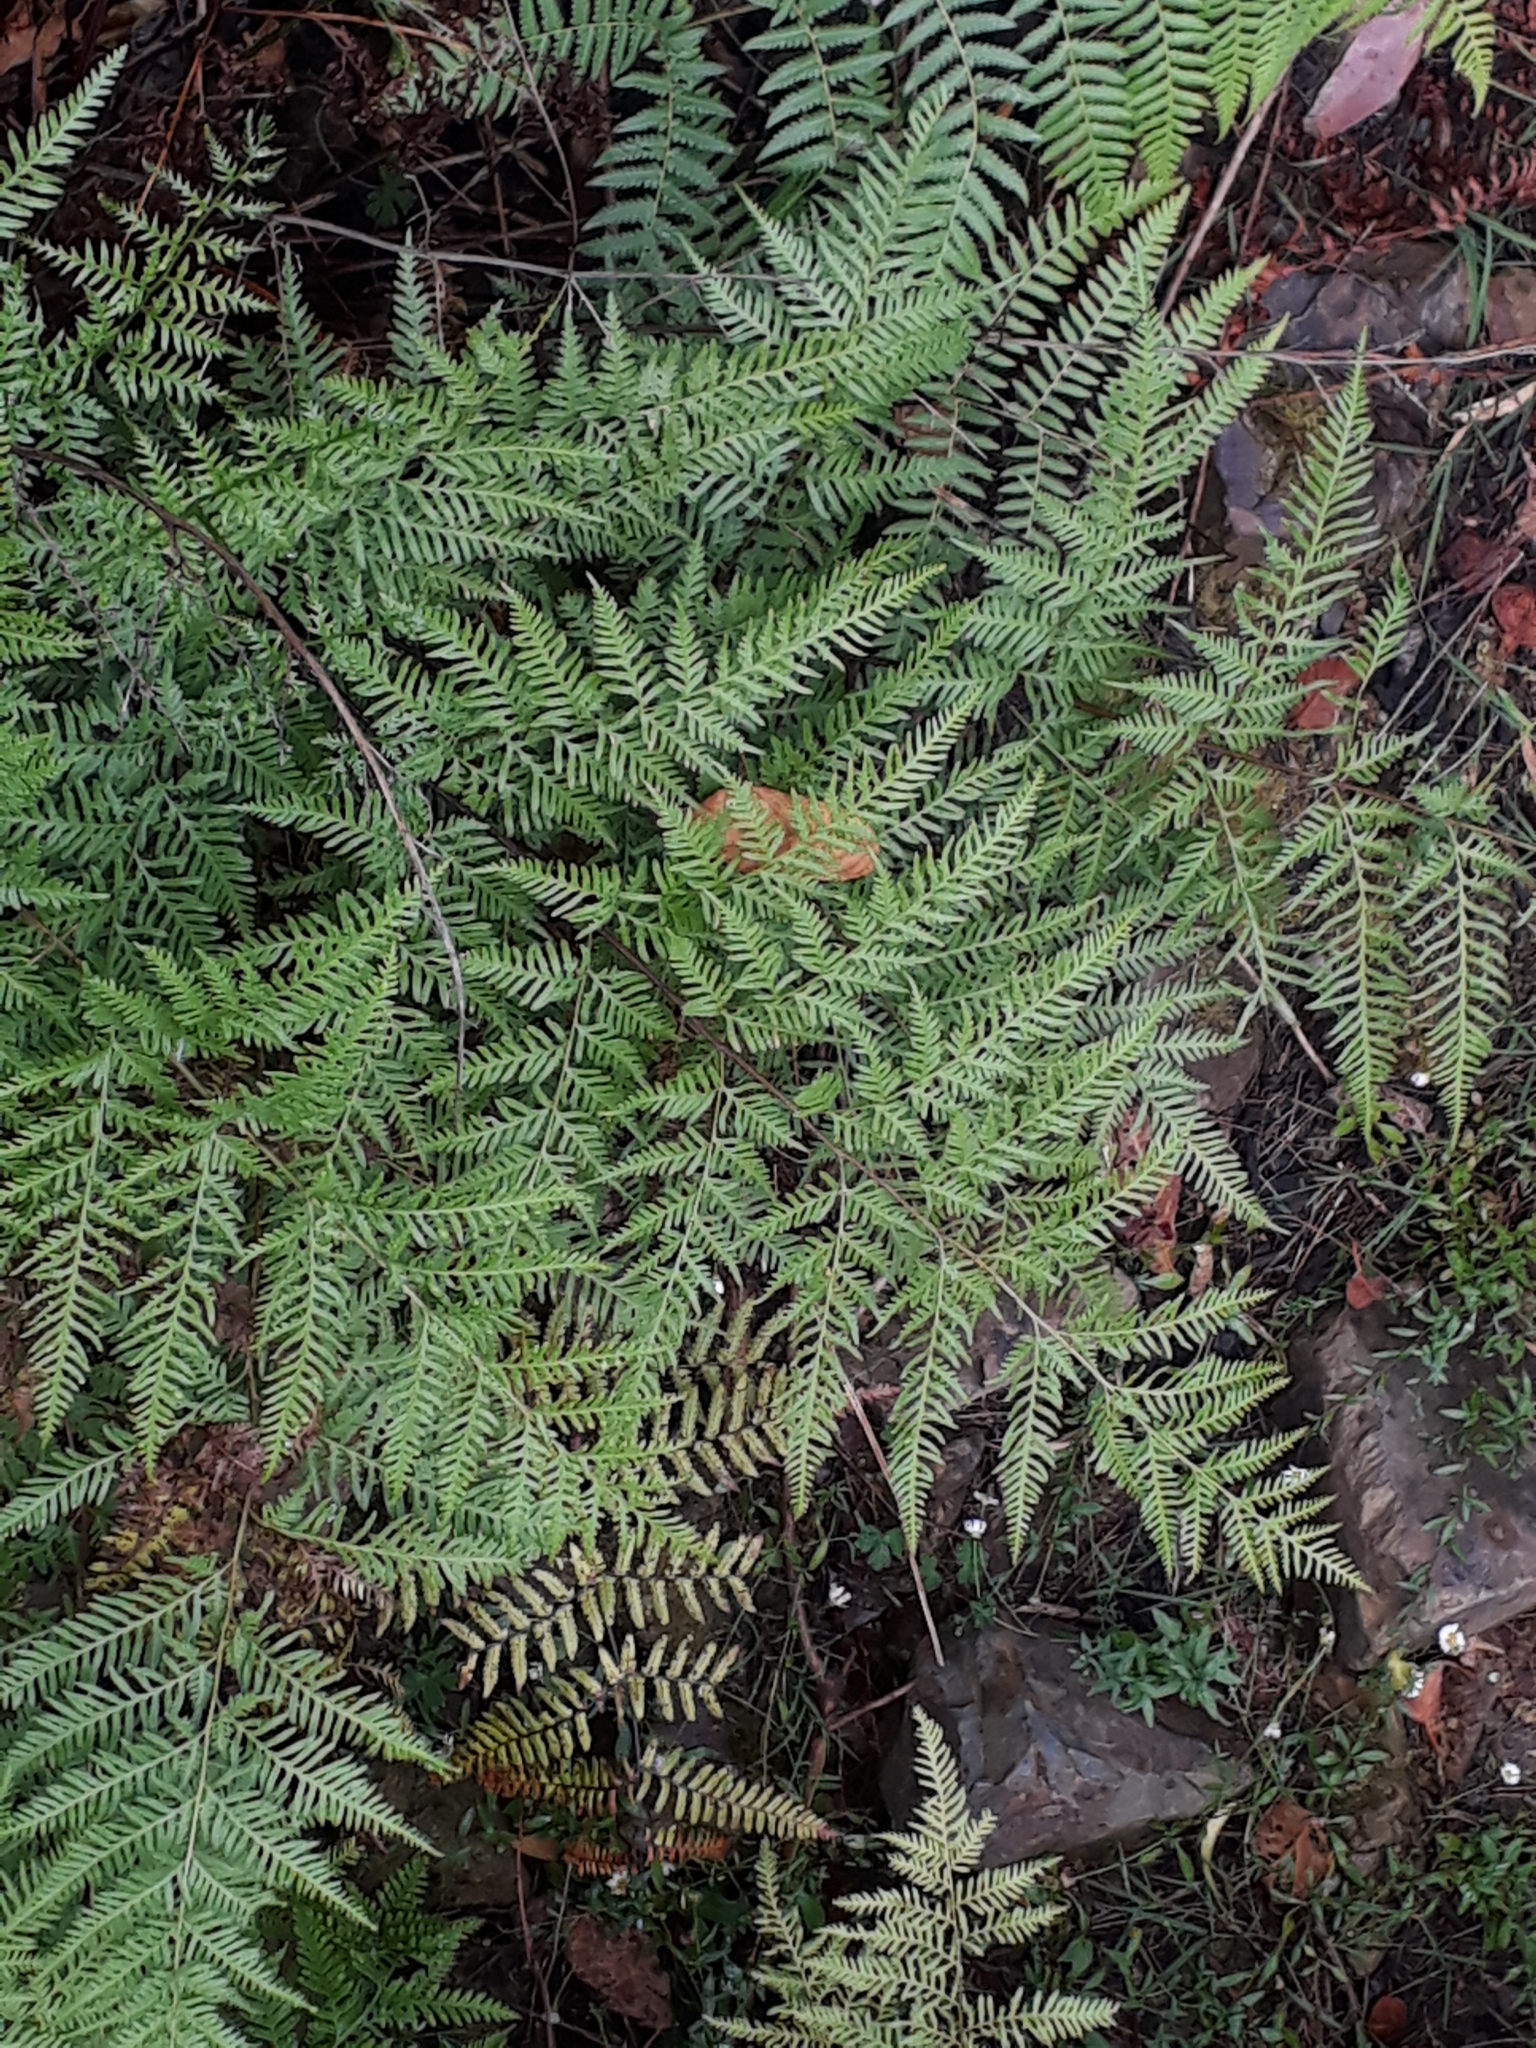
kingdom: Plantae
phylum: Tracheophyta
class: Polypodiopsida
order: Polypodiales
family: Pteridaceae
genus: Pteris
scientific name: Pteris tremula
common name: Australian brake
